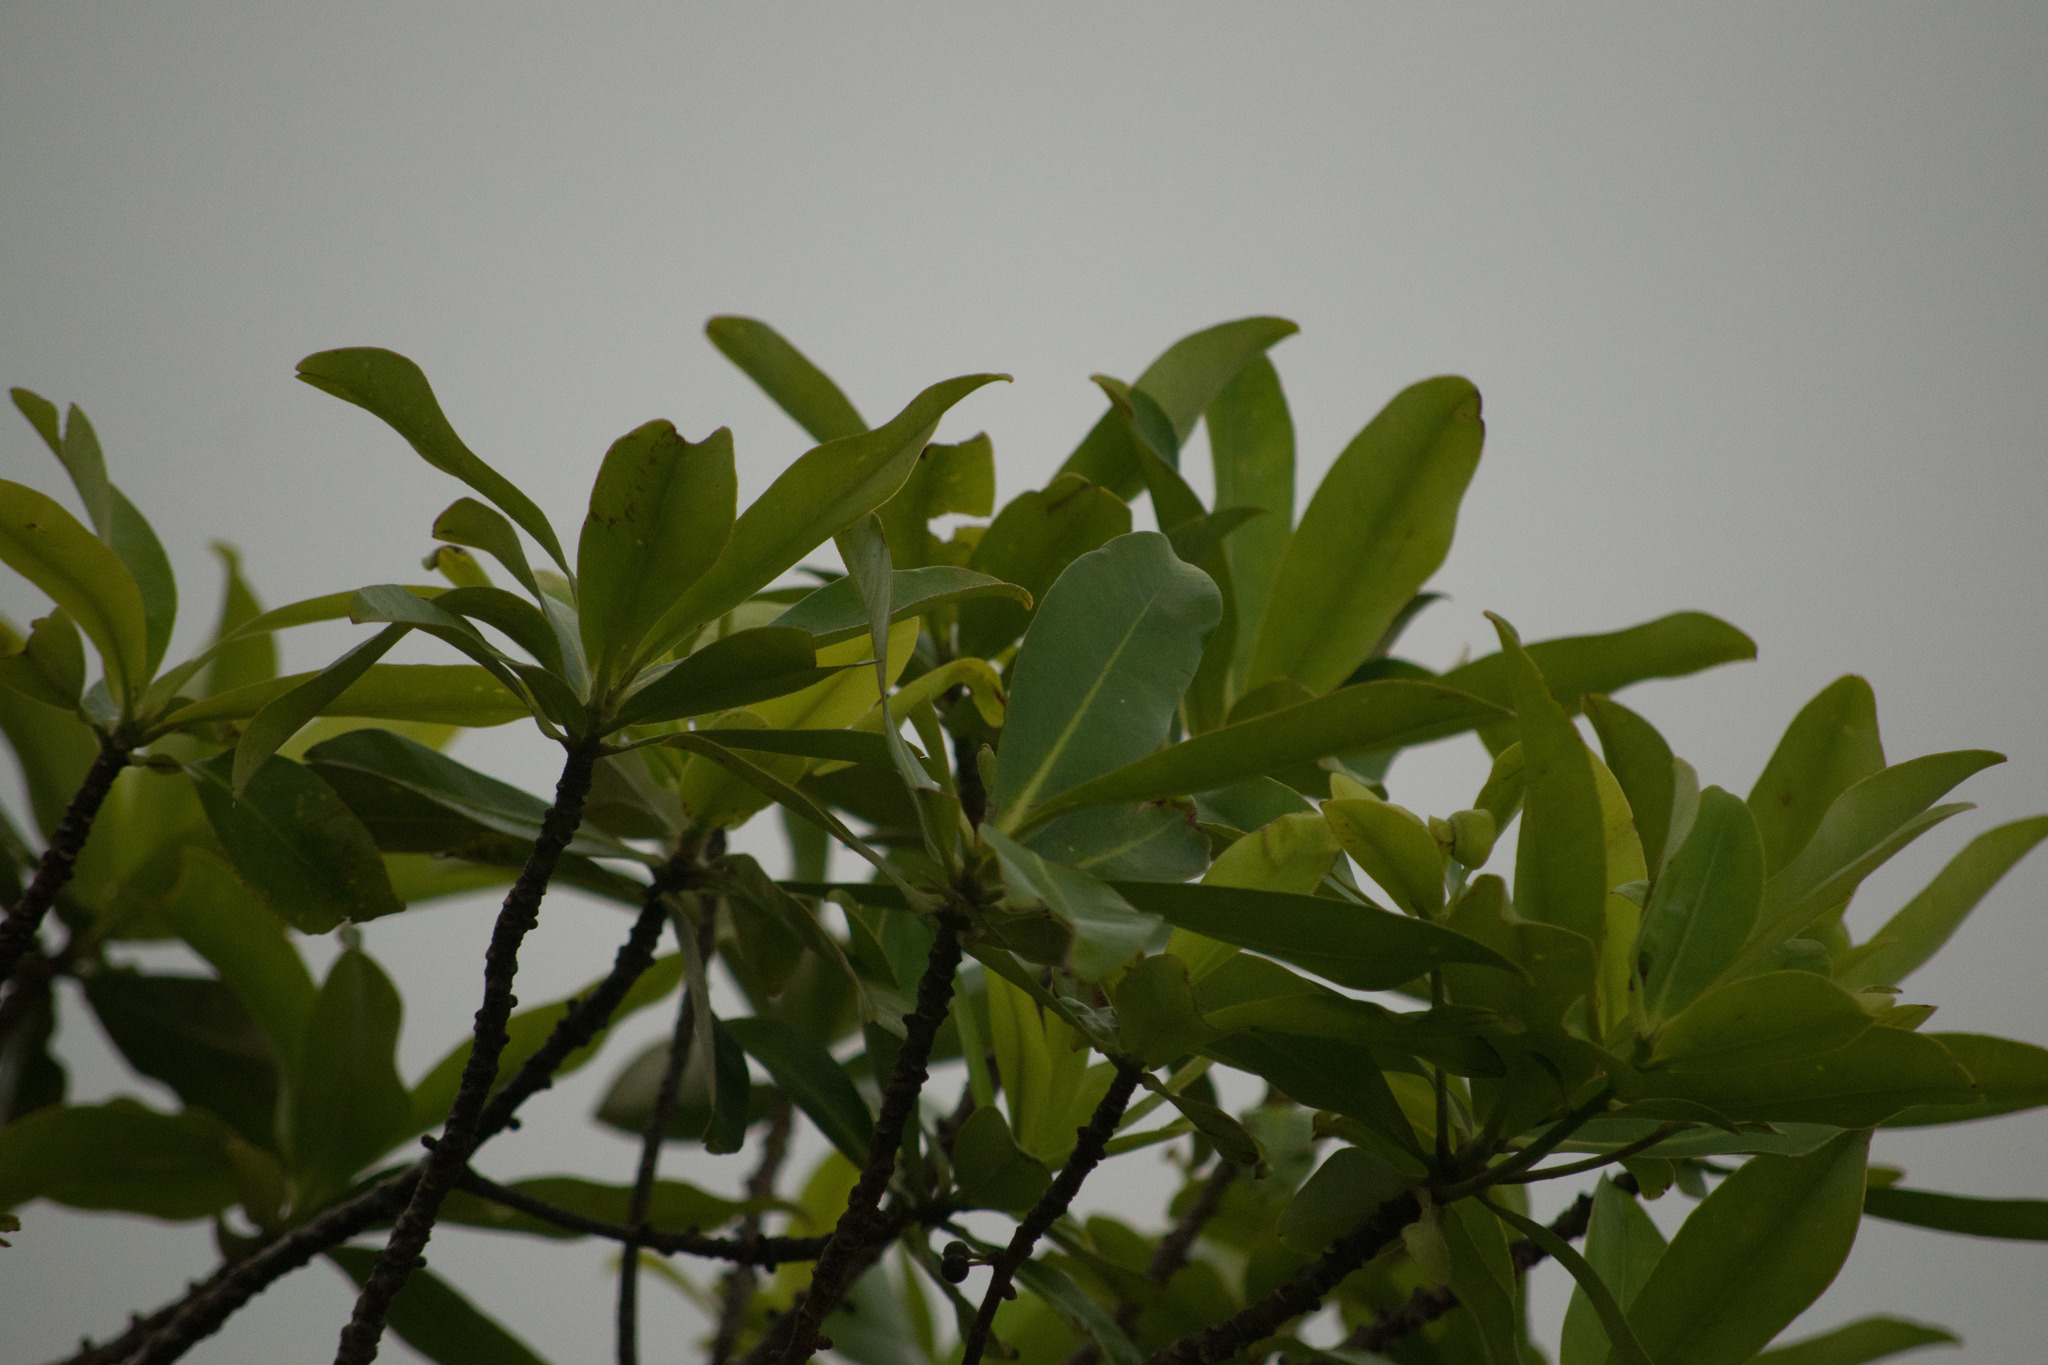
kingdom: Plantae
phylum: Tracheophyta
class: Magnoliopsida
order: Ericales
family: Primulaceae
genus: Myrsine
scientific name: Myrsine lessertiana
